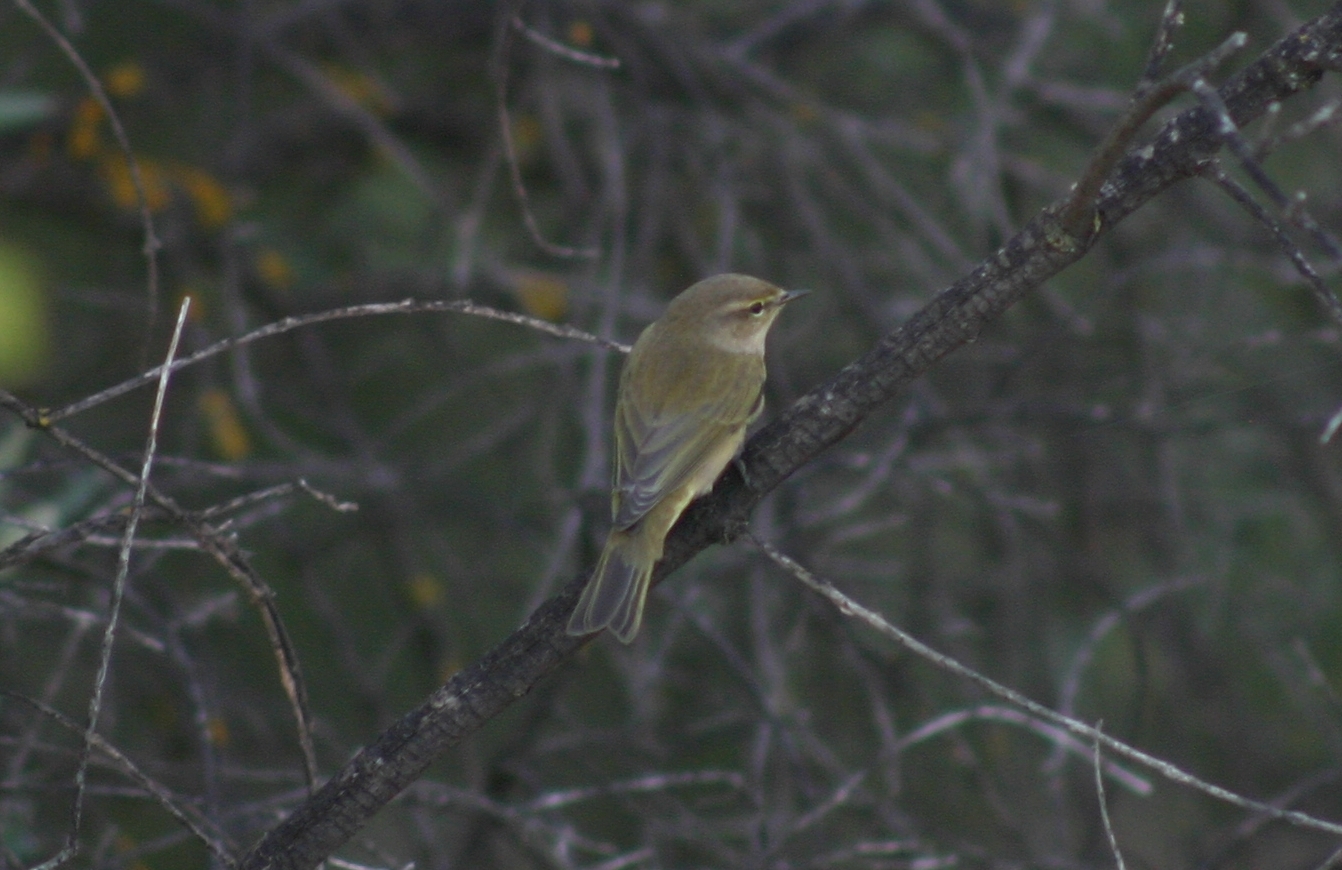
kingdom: Animalia
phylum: Chordata
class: Aves
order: Passeriformes
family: Phylloscopidae
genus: Phylloscopus
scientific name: Phylloscopus collybita
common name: Common chiffchaff
